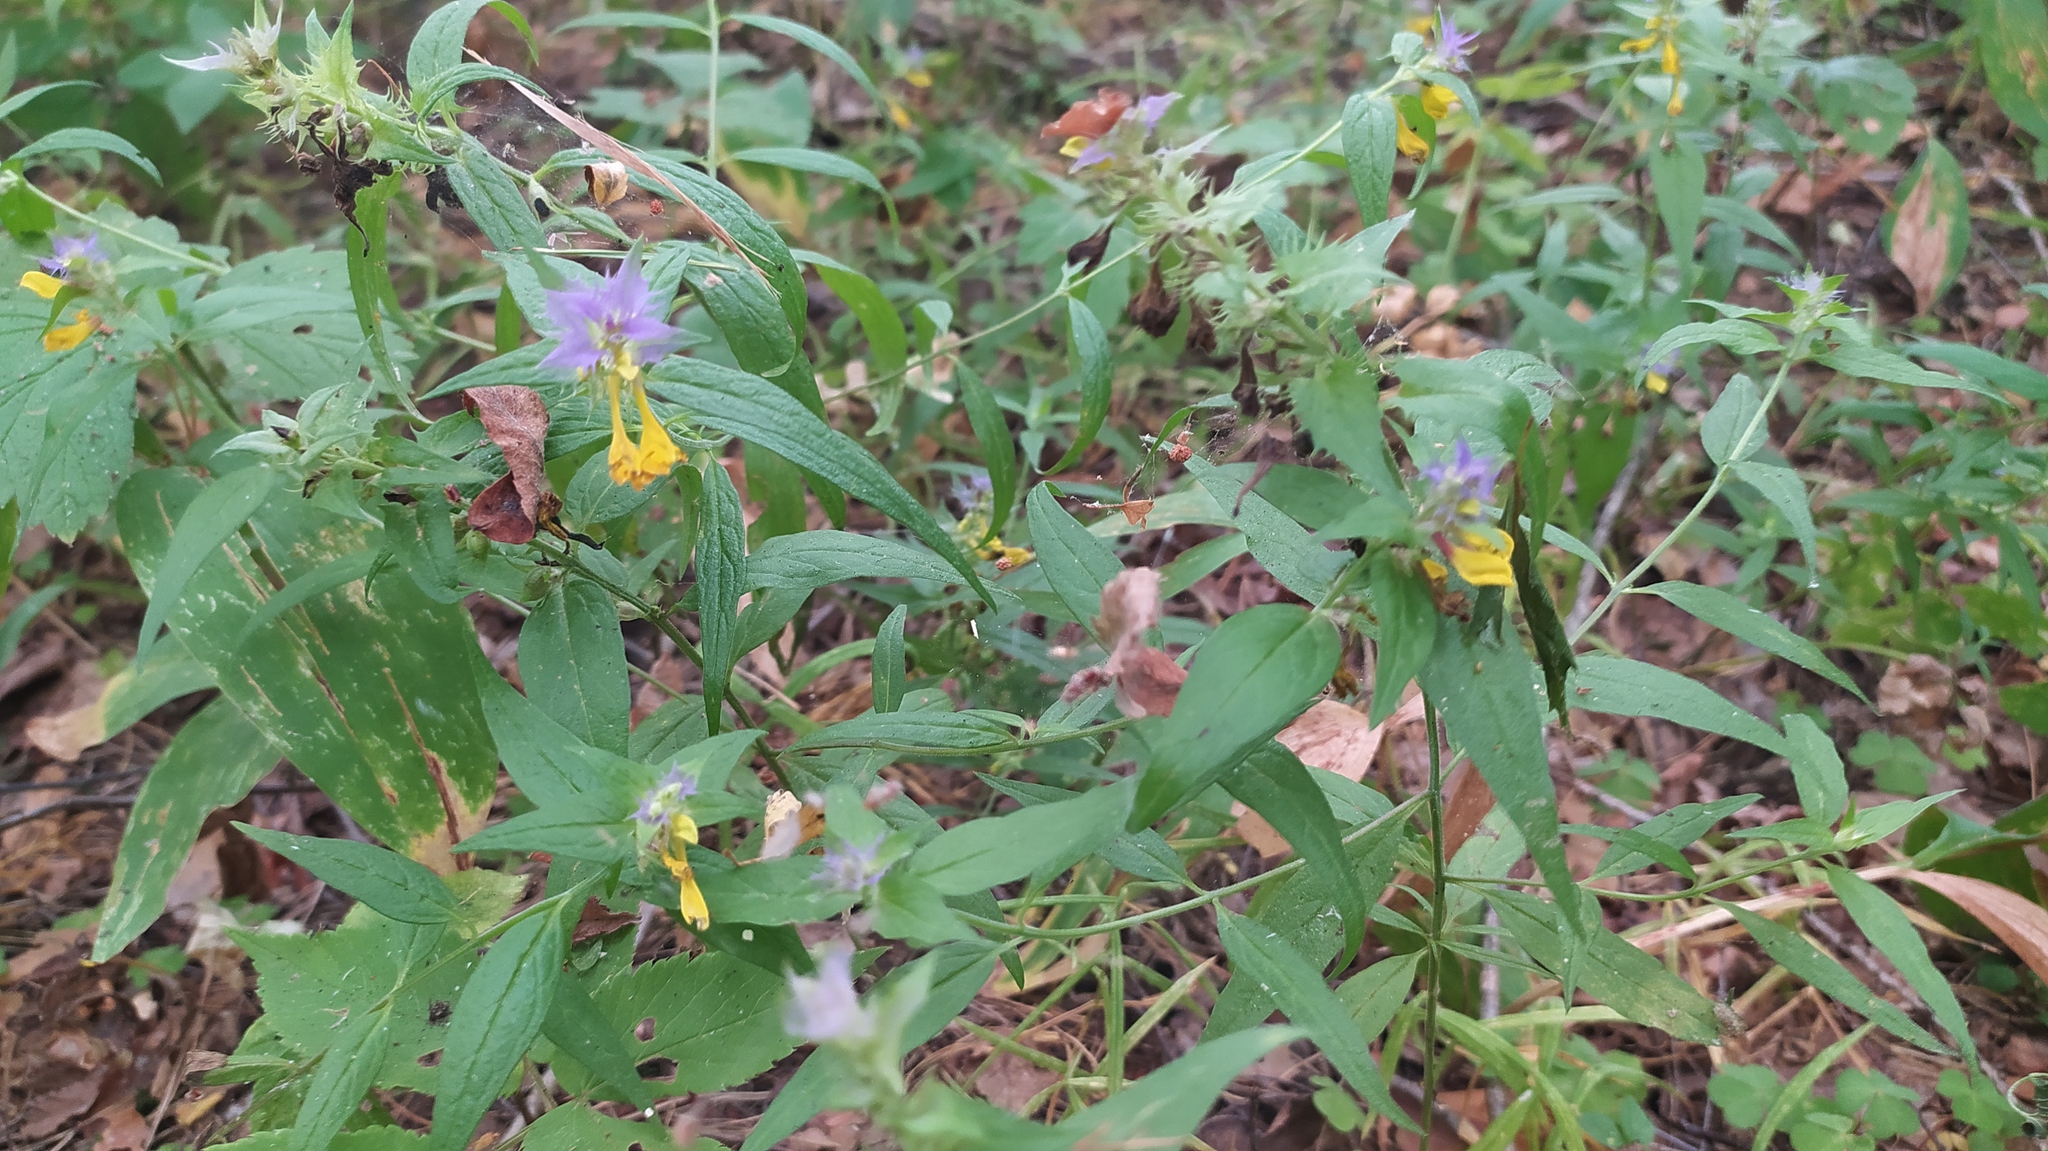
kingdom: Plantae
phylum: Tracheophyta
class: Magnoliopsida
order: Lamiales
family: Orobanchaceae
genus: Melampyrum
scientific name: Melampyrum nemorosum
